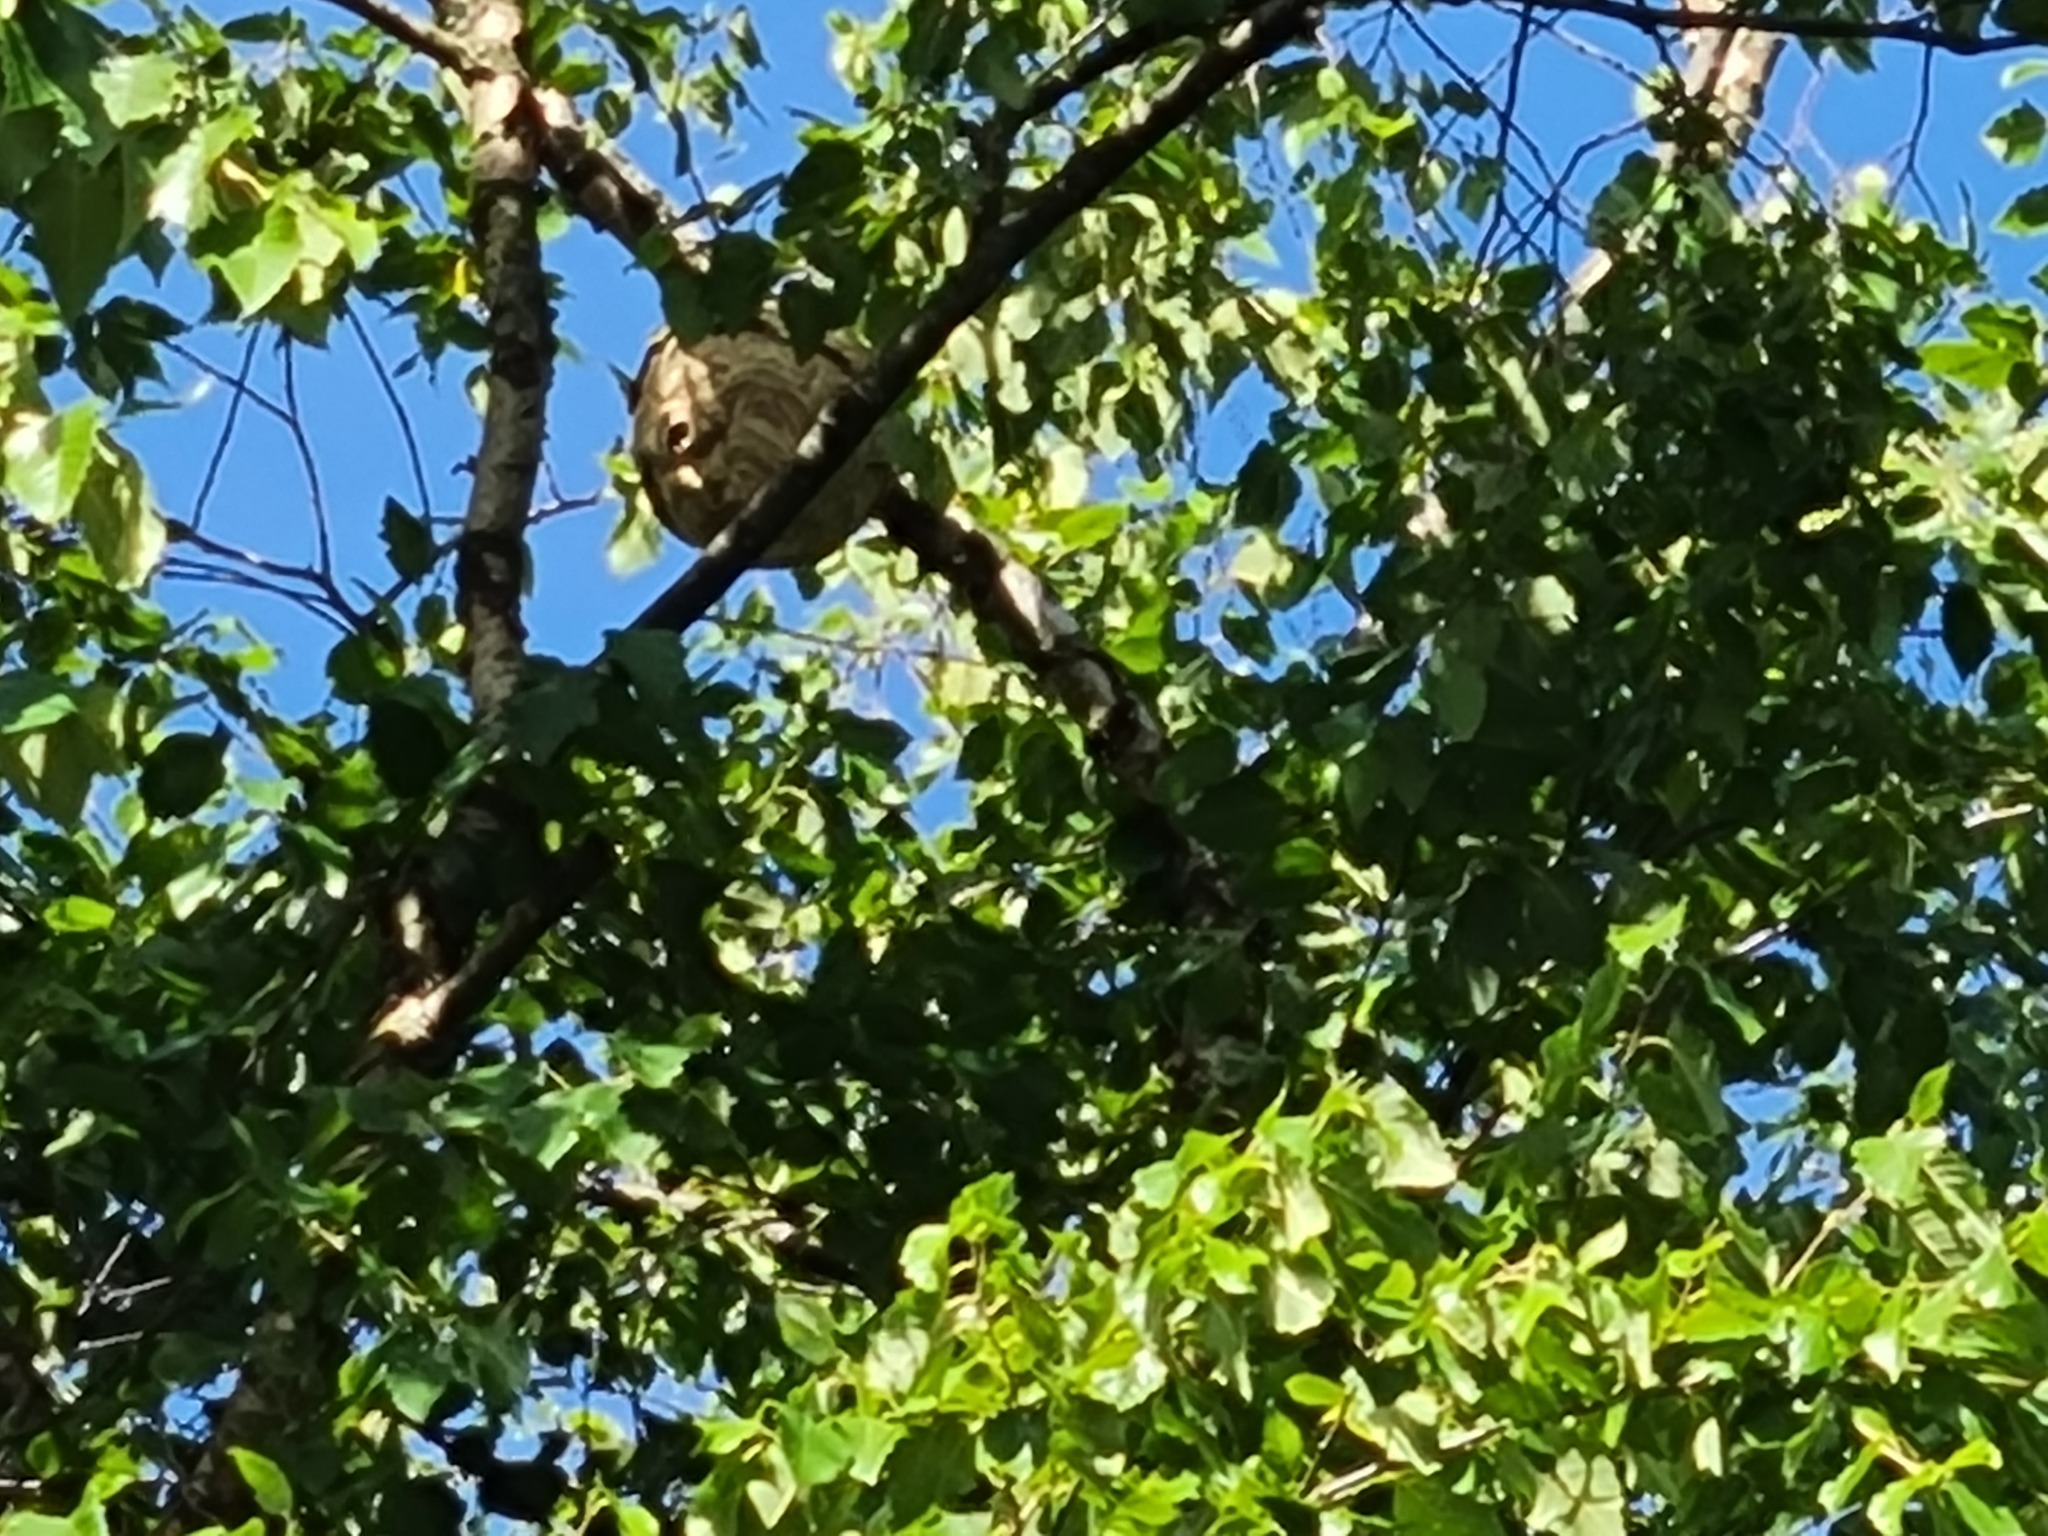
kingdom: Animalia
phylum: Arthropoda
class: Insecta
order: Hymenoptera
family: Vespidae
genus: Vespa
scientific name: Vespa velutina
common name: Asian hornet
